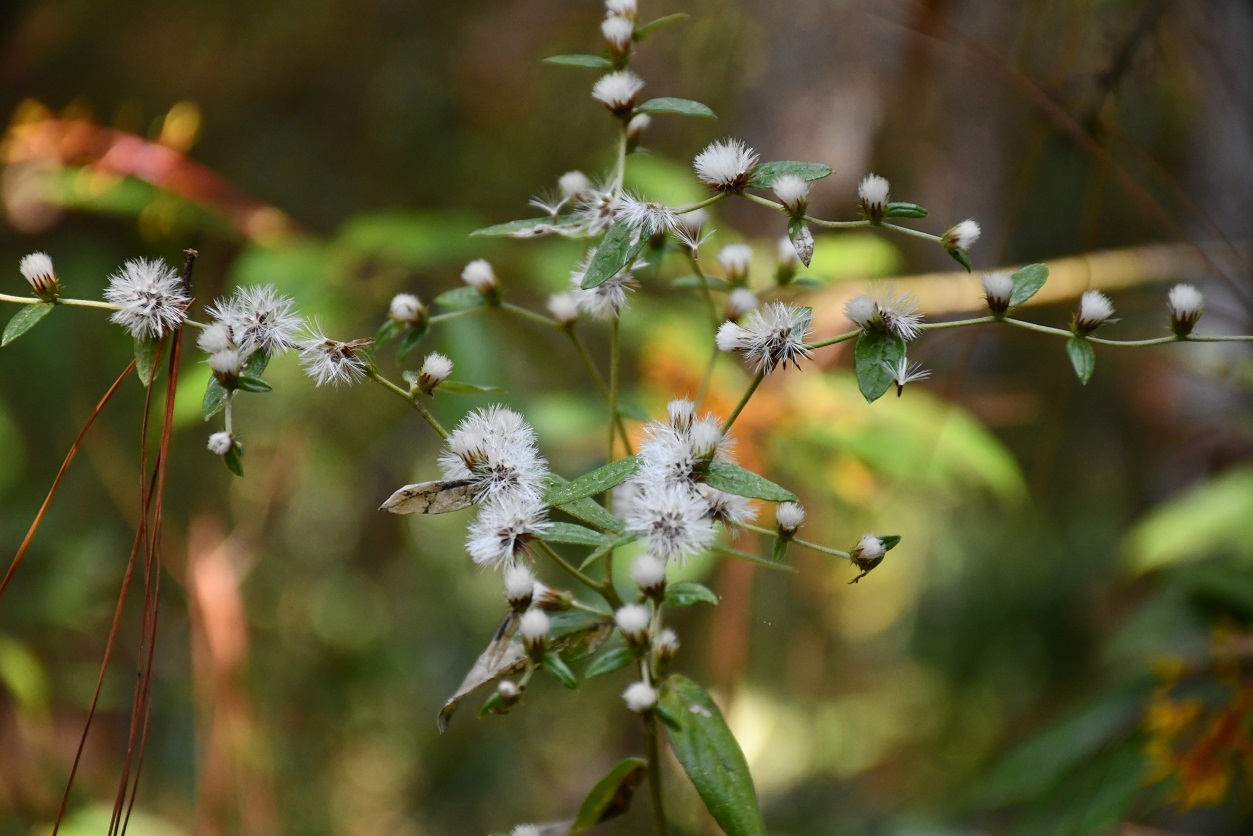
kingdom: Plantae
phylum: Tracheophyta
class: Magnoliopsida
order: Asterales
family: Asteraceae
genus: Lepidaploa
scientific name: Lepidaploa argyropappa
